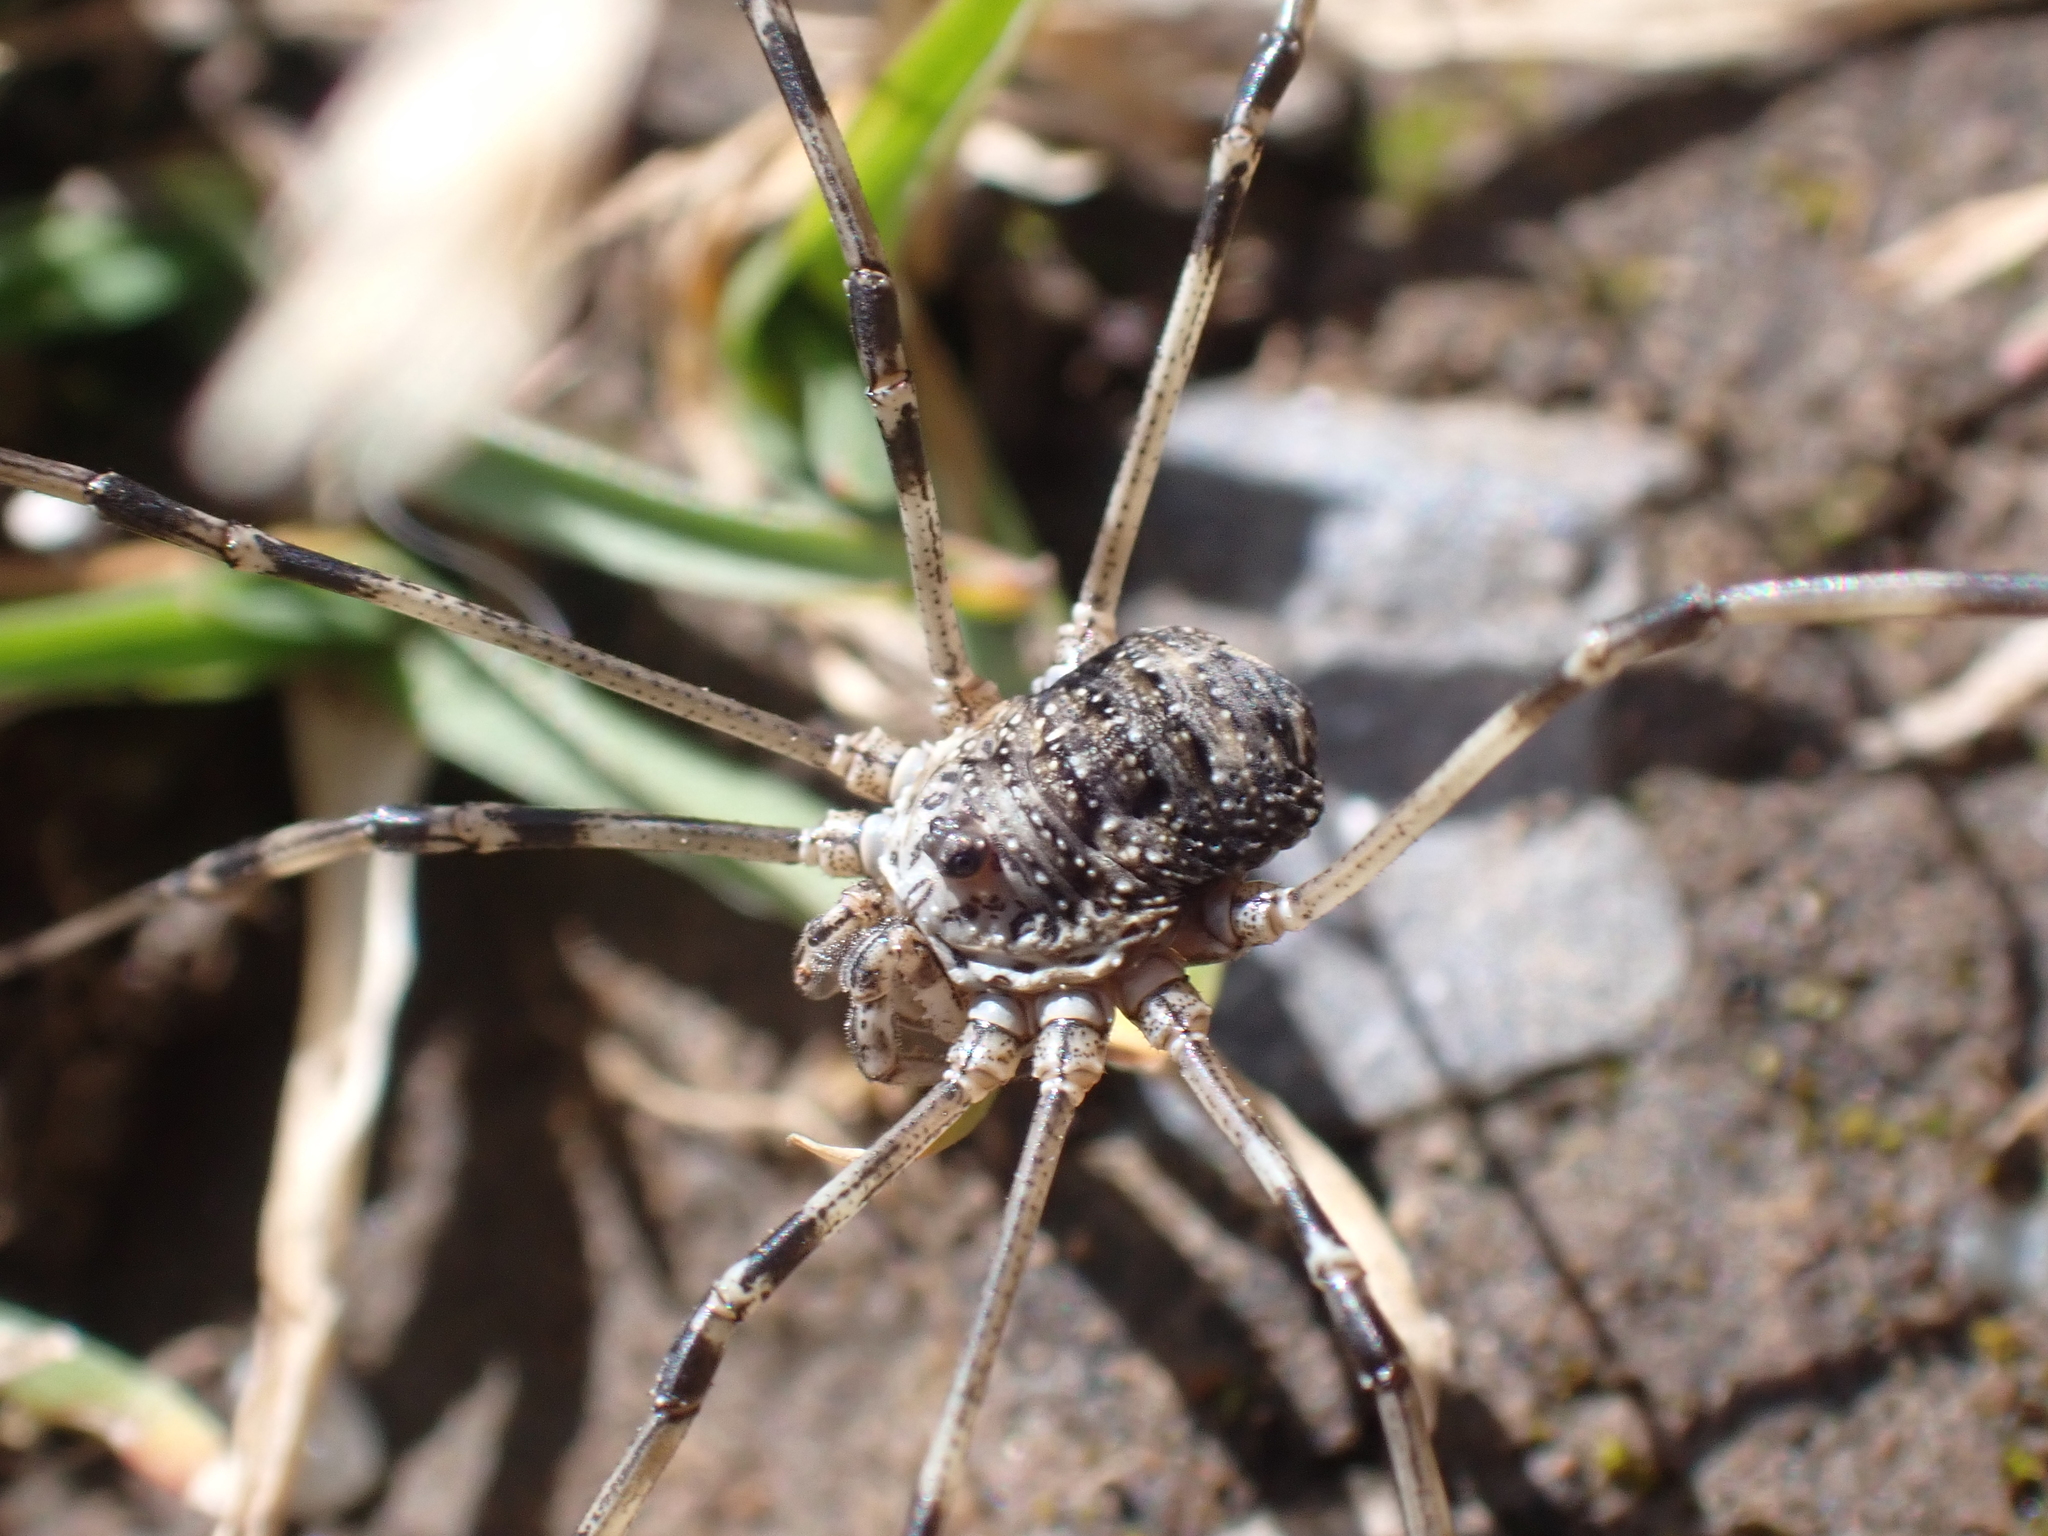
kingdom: Animalia
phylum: Arthropoda
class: Arachnida
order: Opiliones
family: Phalangiidae
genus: Mitopus
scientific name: Mitopus glacialis
